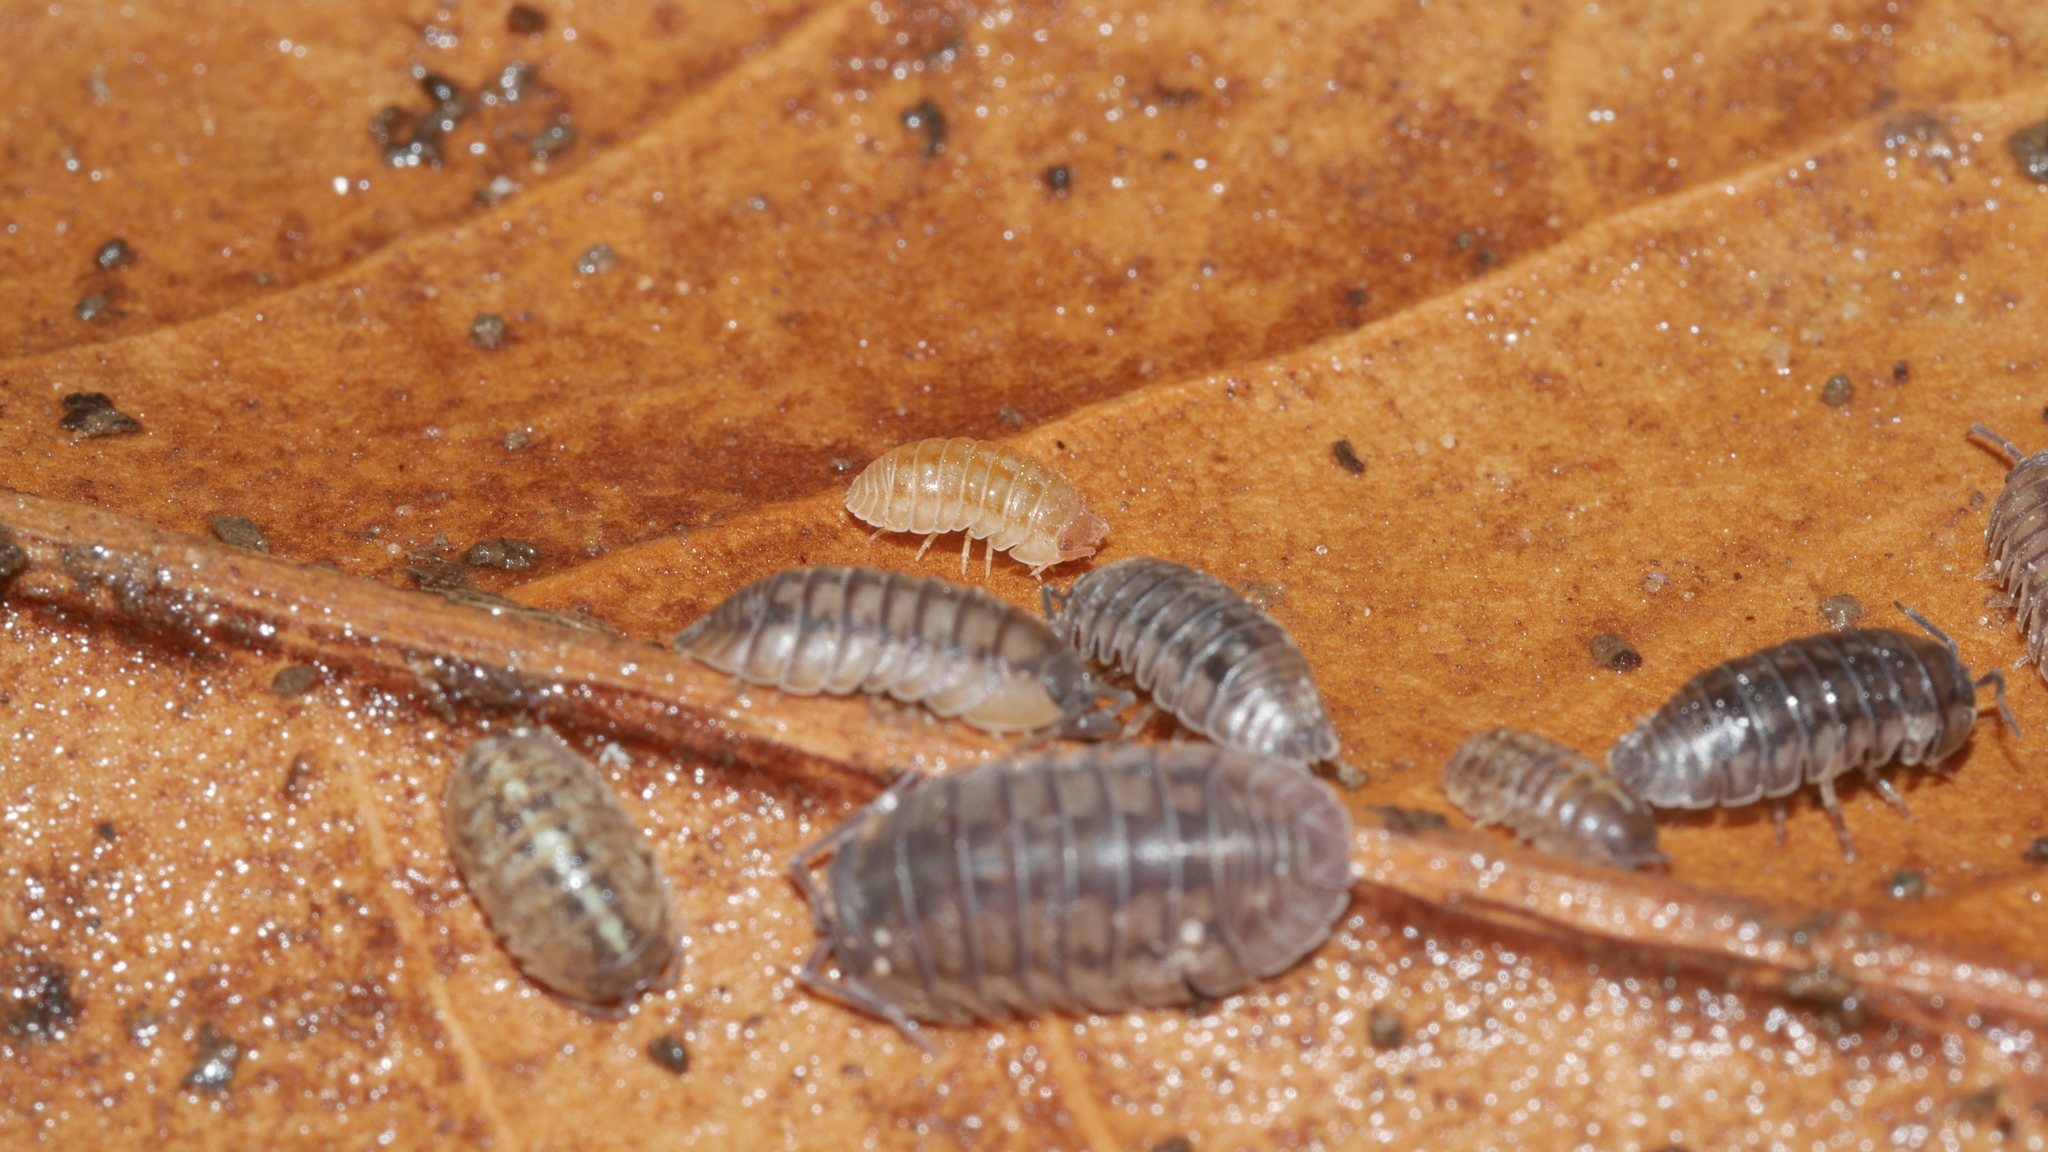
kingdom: Animalia
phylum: Arthropoda
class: Malacostraca
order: Isopoda
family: Armadillidiidae
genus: Armadillidium
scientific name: Armadillidium nasatum
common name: Isopod
